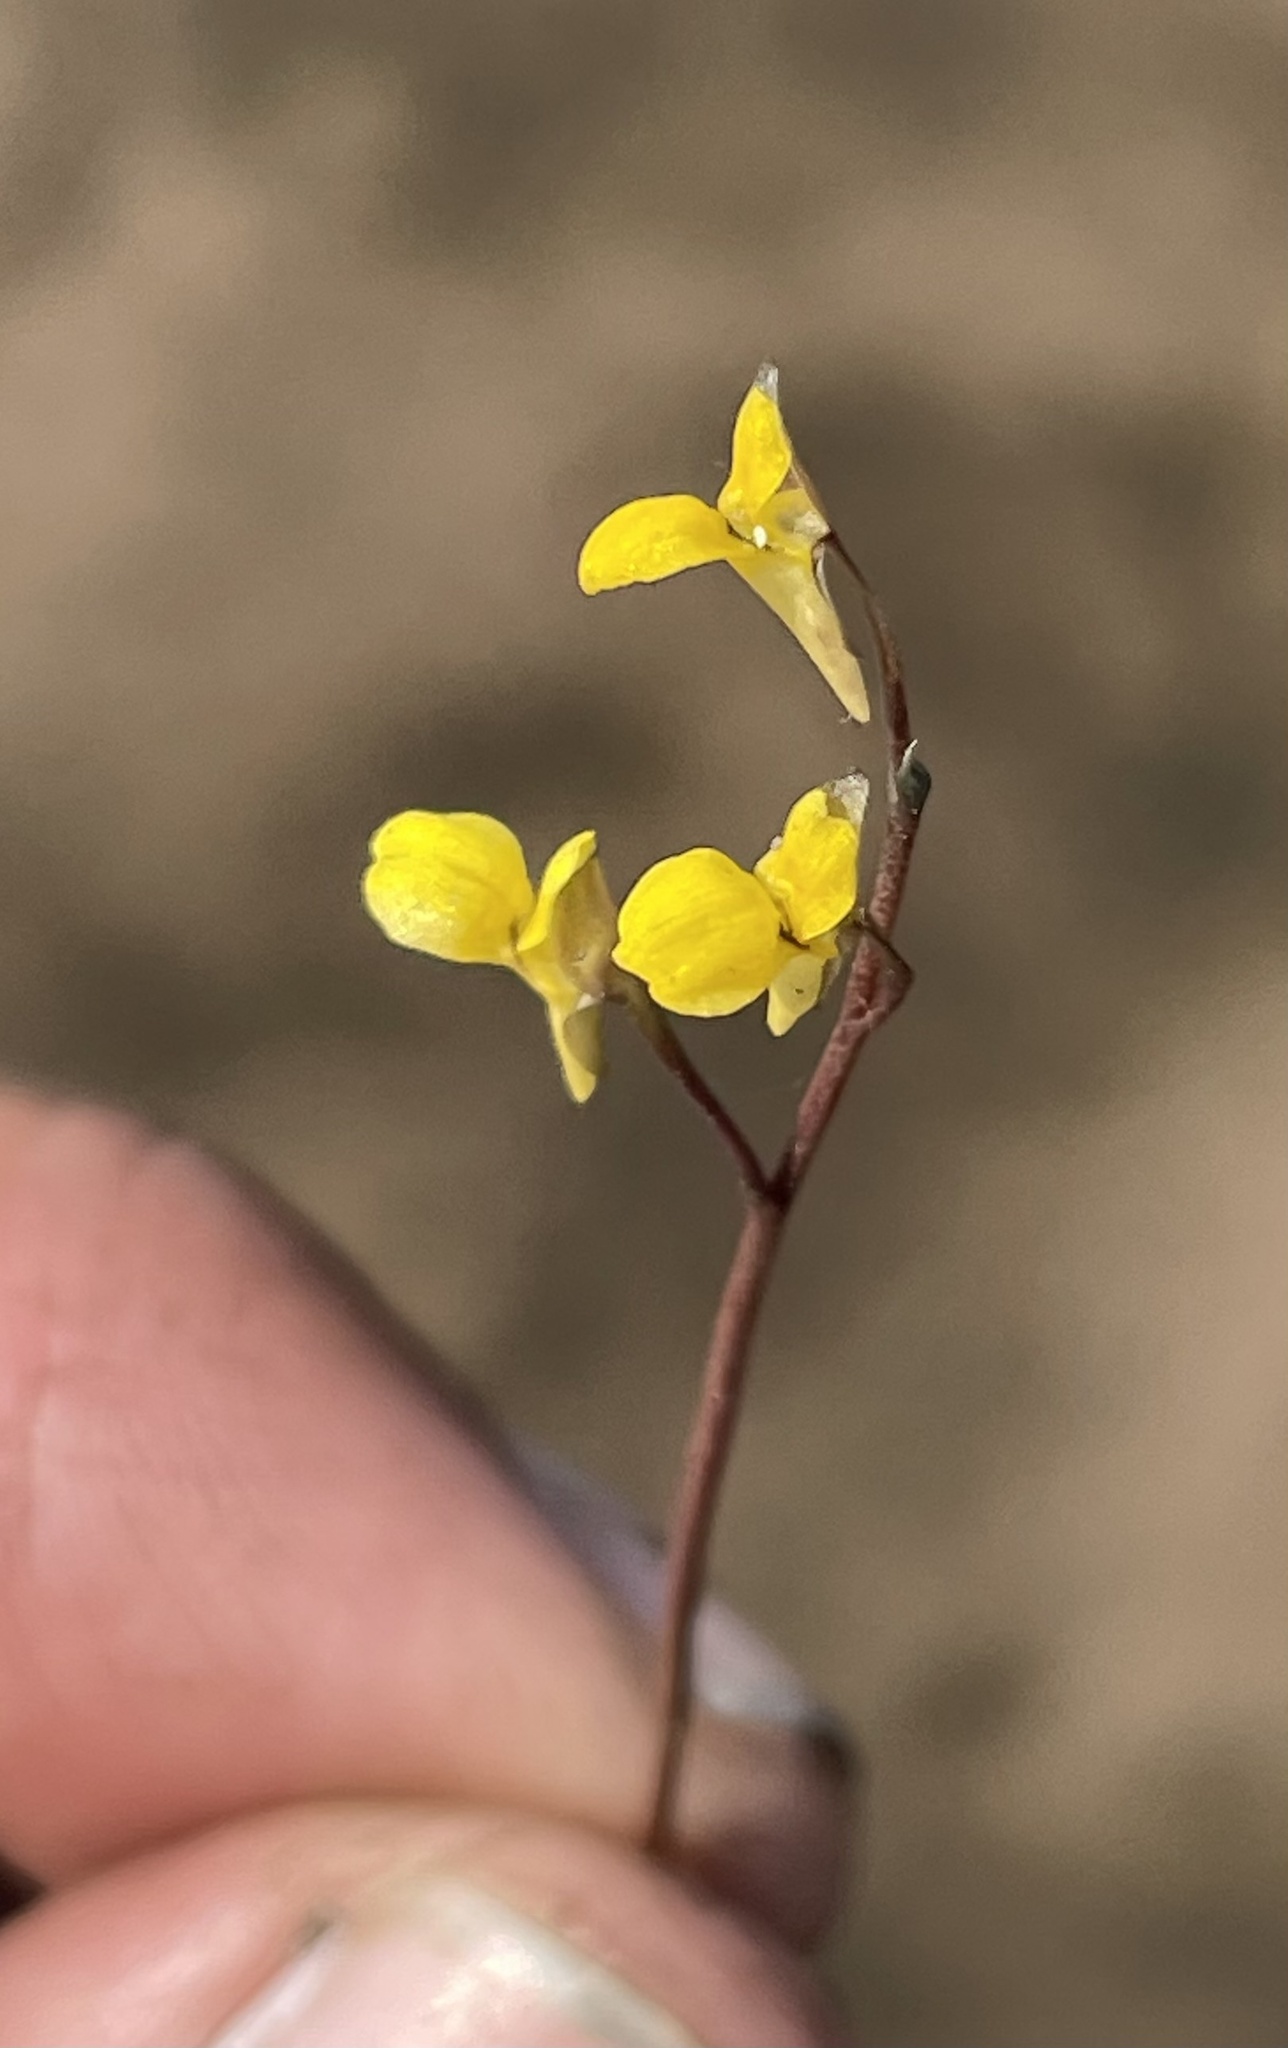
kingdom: Plantae
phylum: Tracheophyta
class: Magnoliopsida
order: Lamiales
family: Lentibulariaceae
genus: Utricularia
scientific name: Utricularia tortilis
